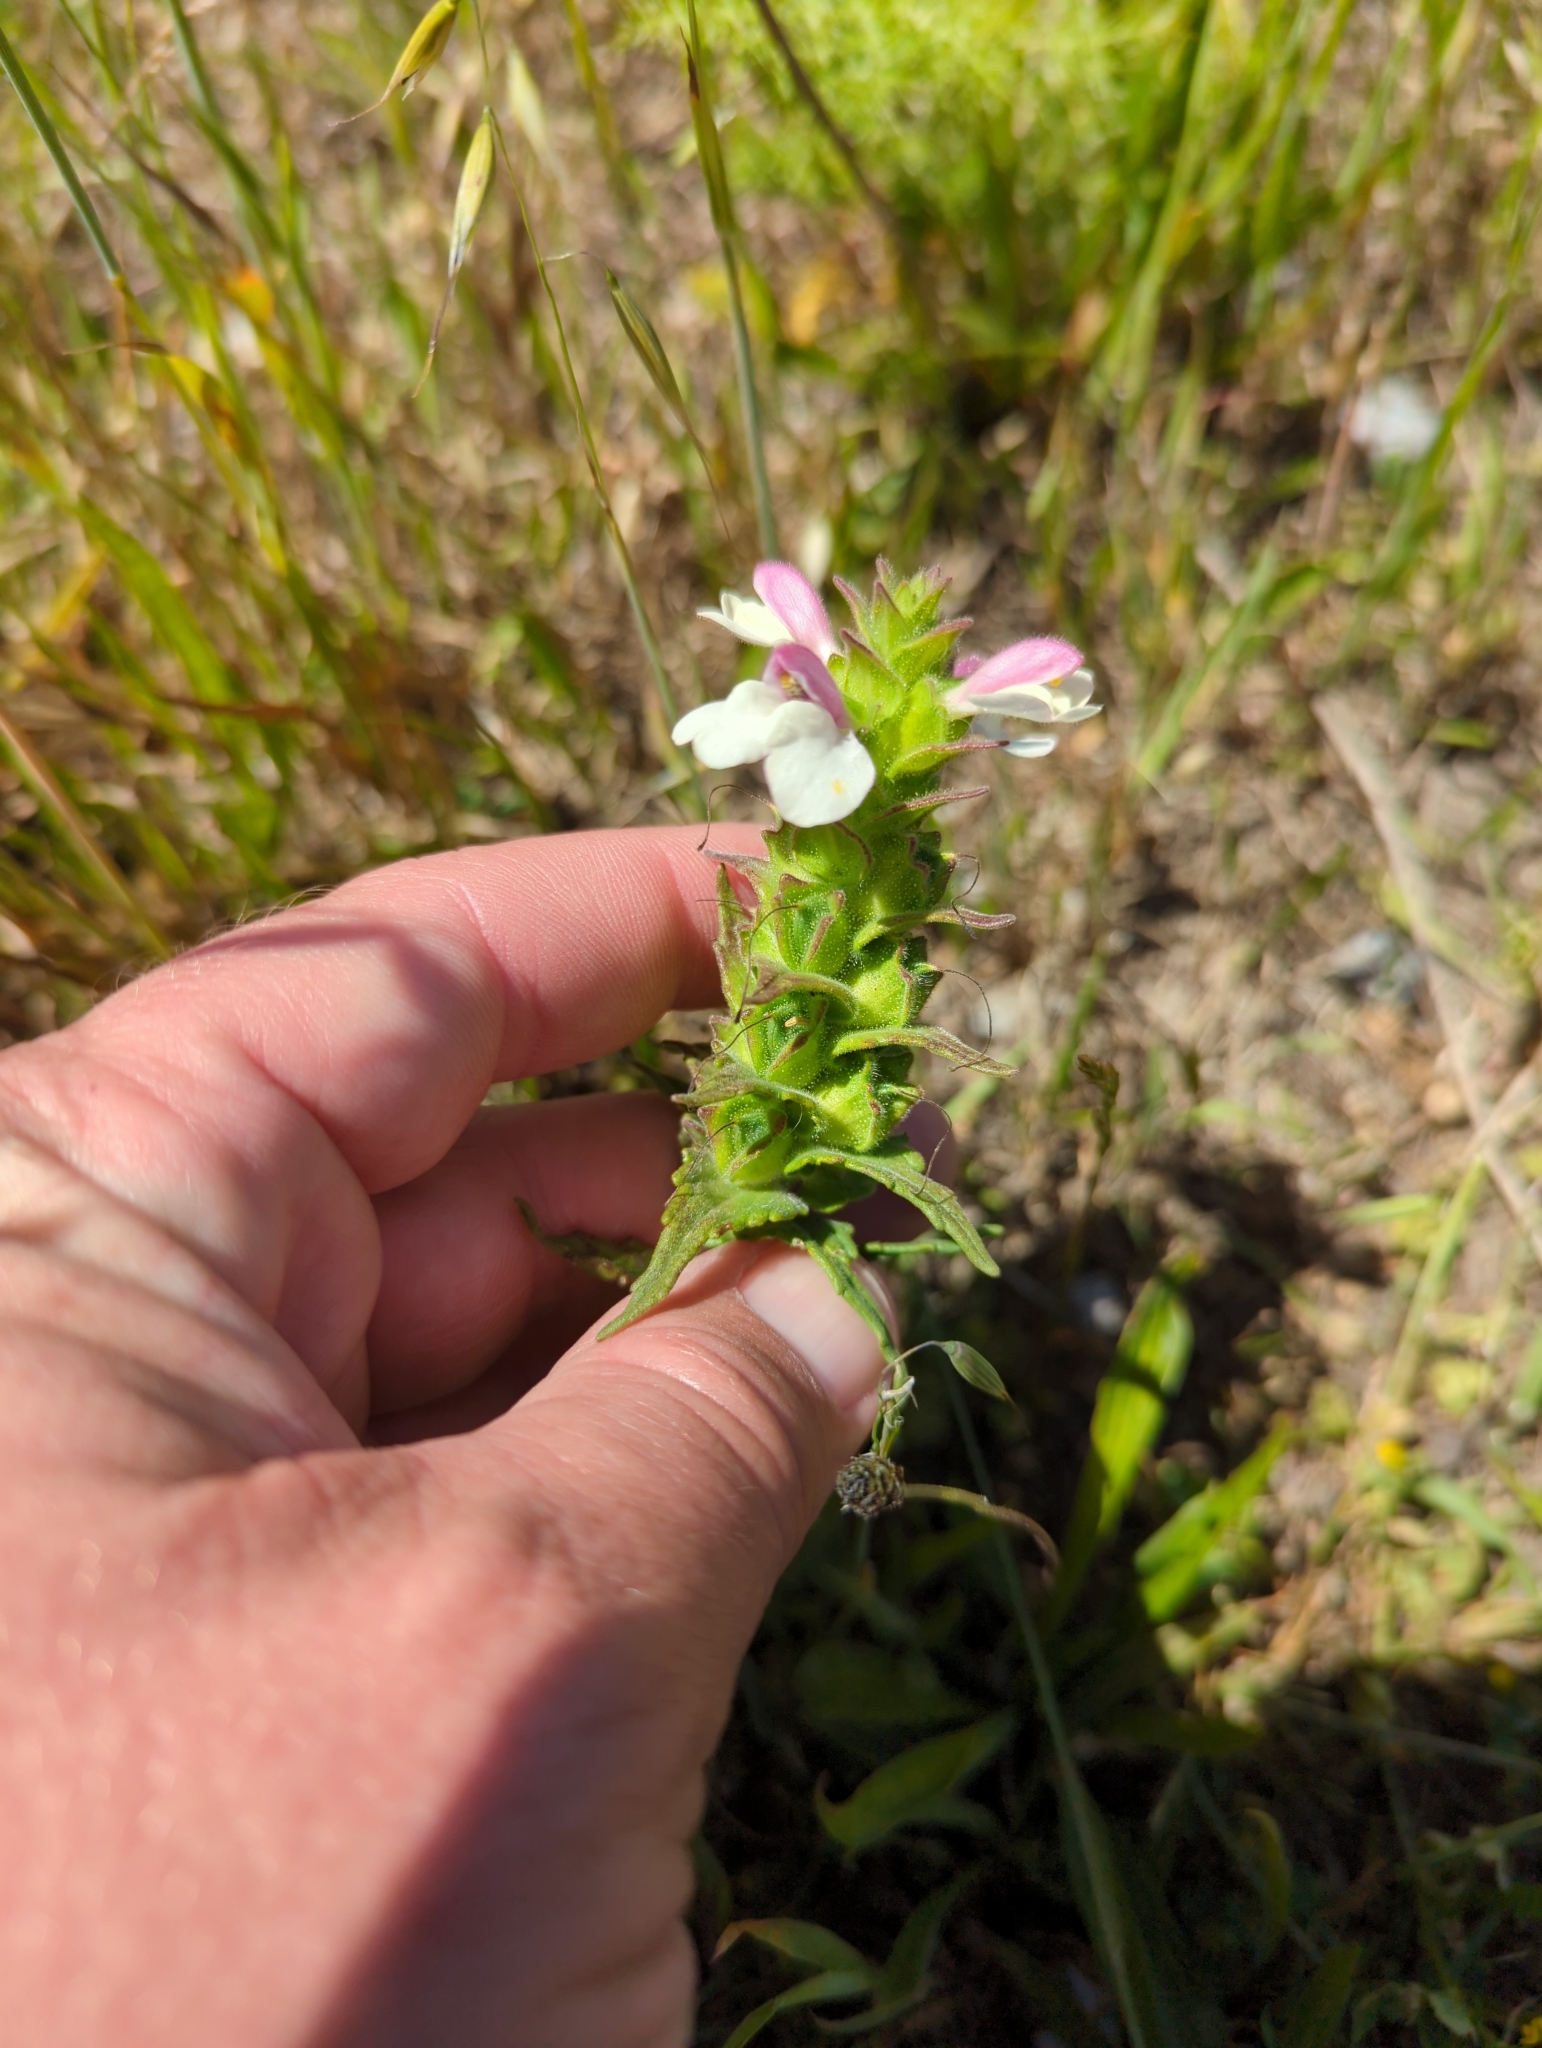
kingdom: Plantae
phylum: Tracheophyta
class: Magnoliopsida
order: Lamiales
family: Orobanchaceae
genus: Bellardia
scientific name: Bellardia trixago
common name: Mediterranean lineseed
